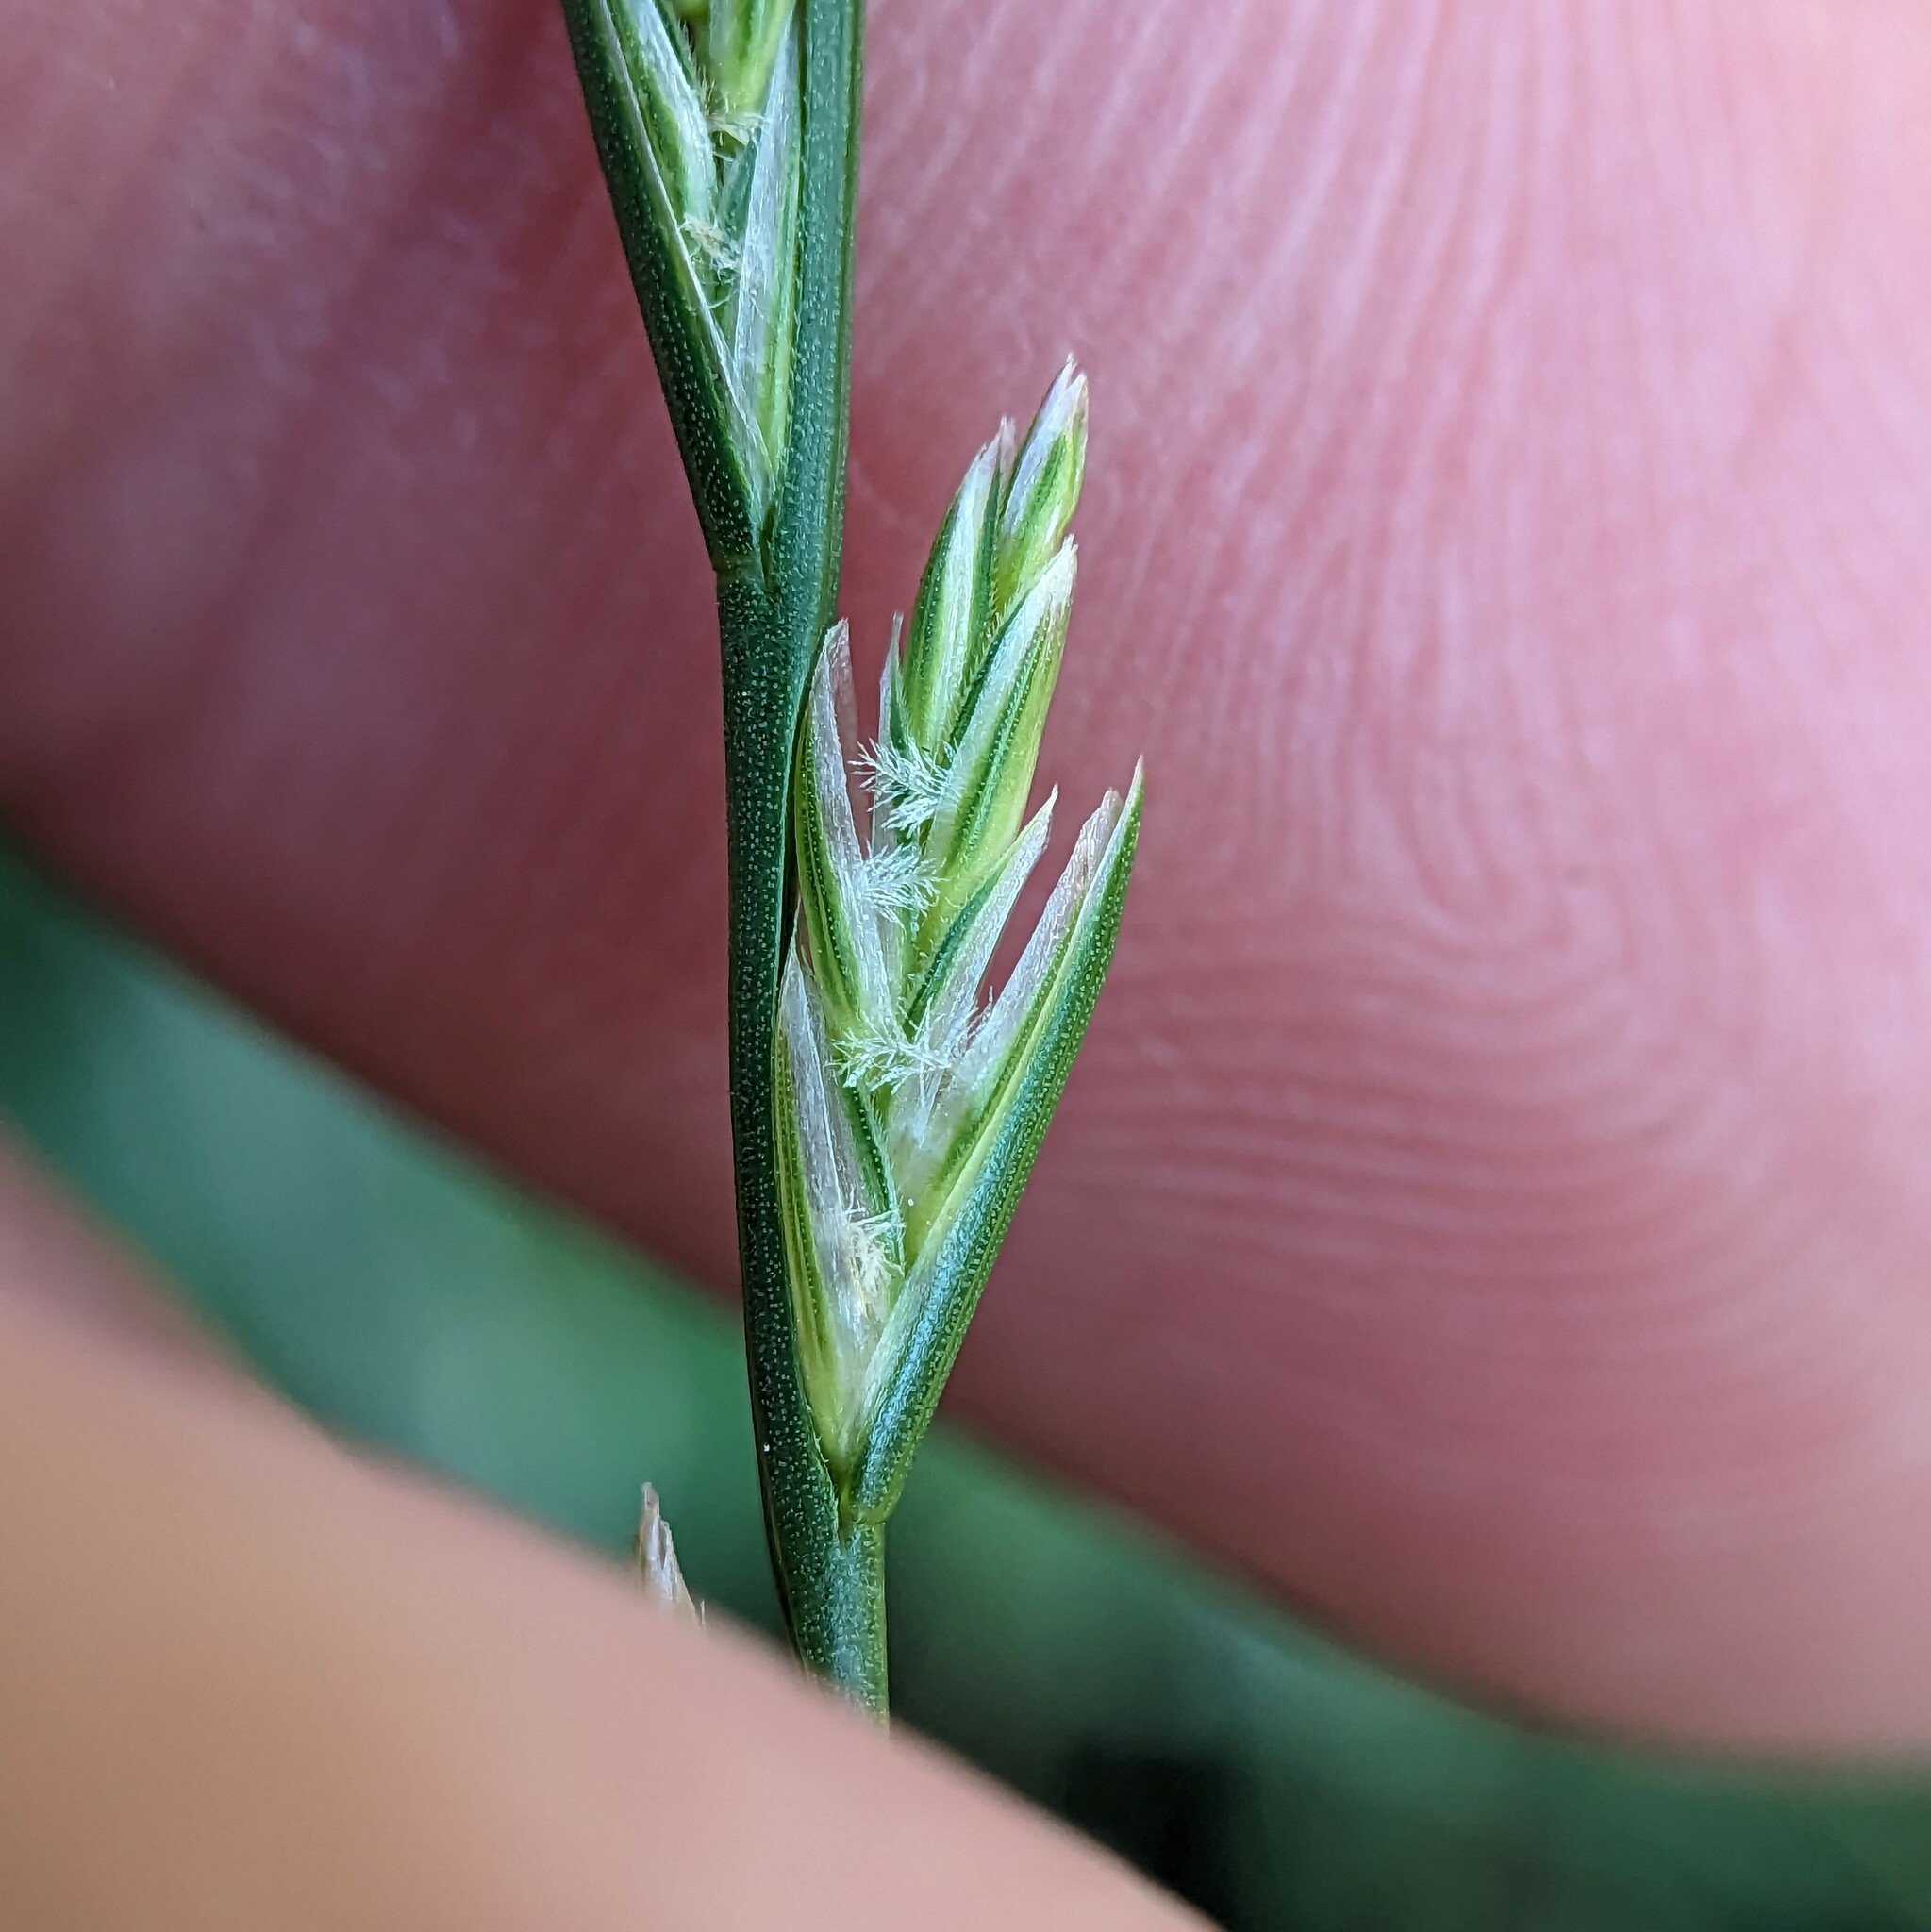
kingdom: Plantae
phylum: Tracheophyta
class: Liliopsida
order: Poales
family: Poaceae
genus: Lolium
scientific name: Lolium perenne
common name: Perennial ryegrass
